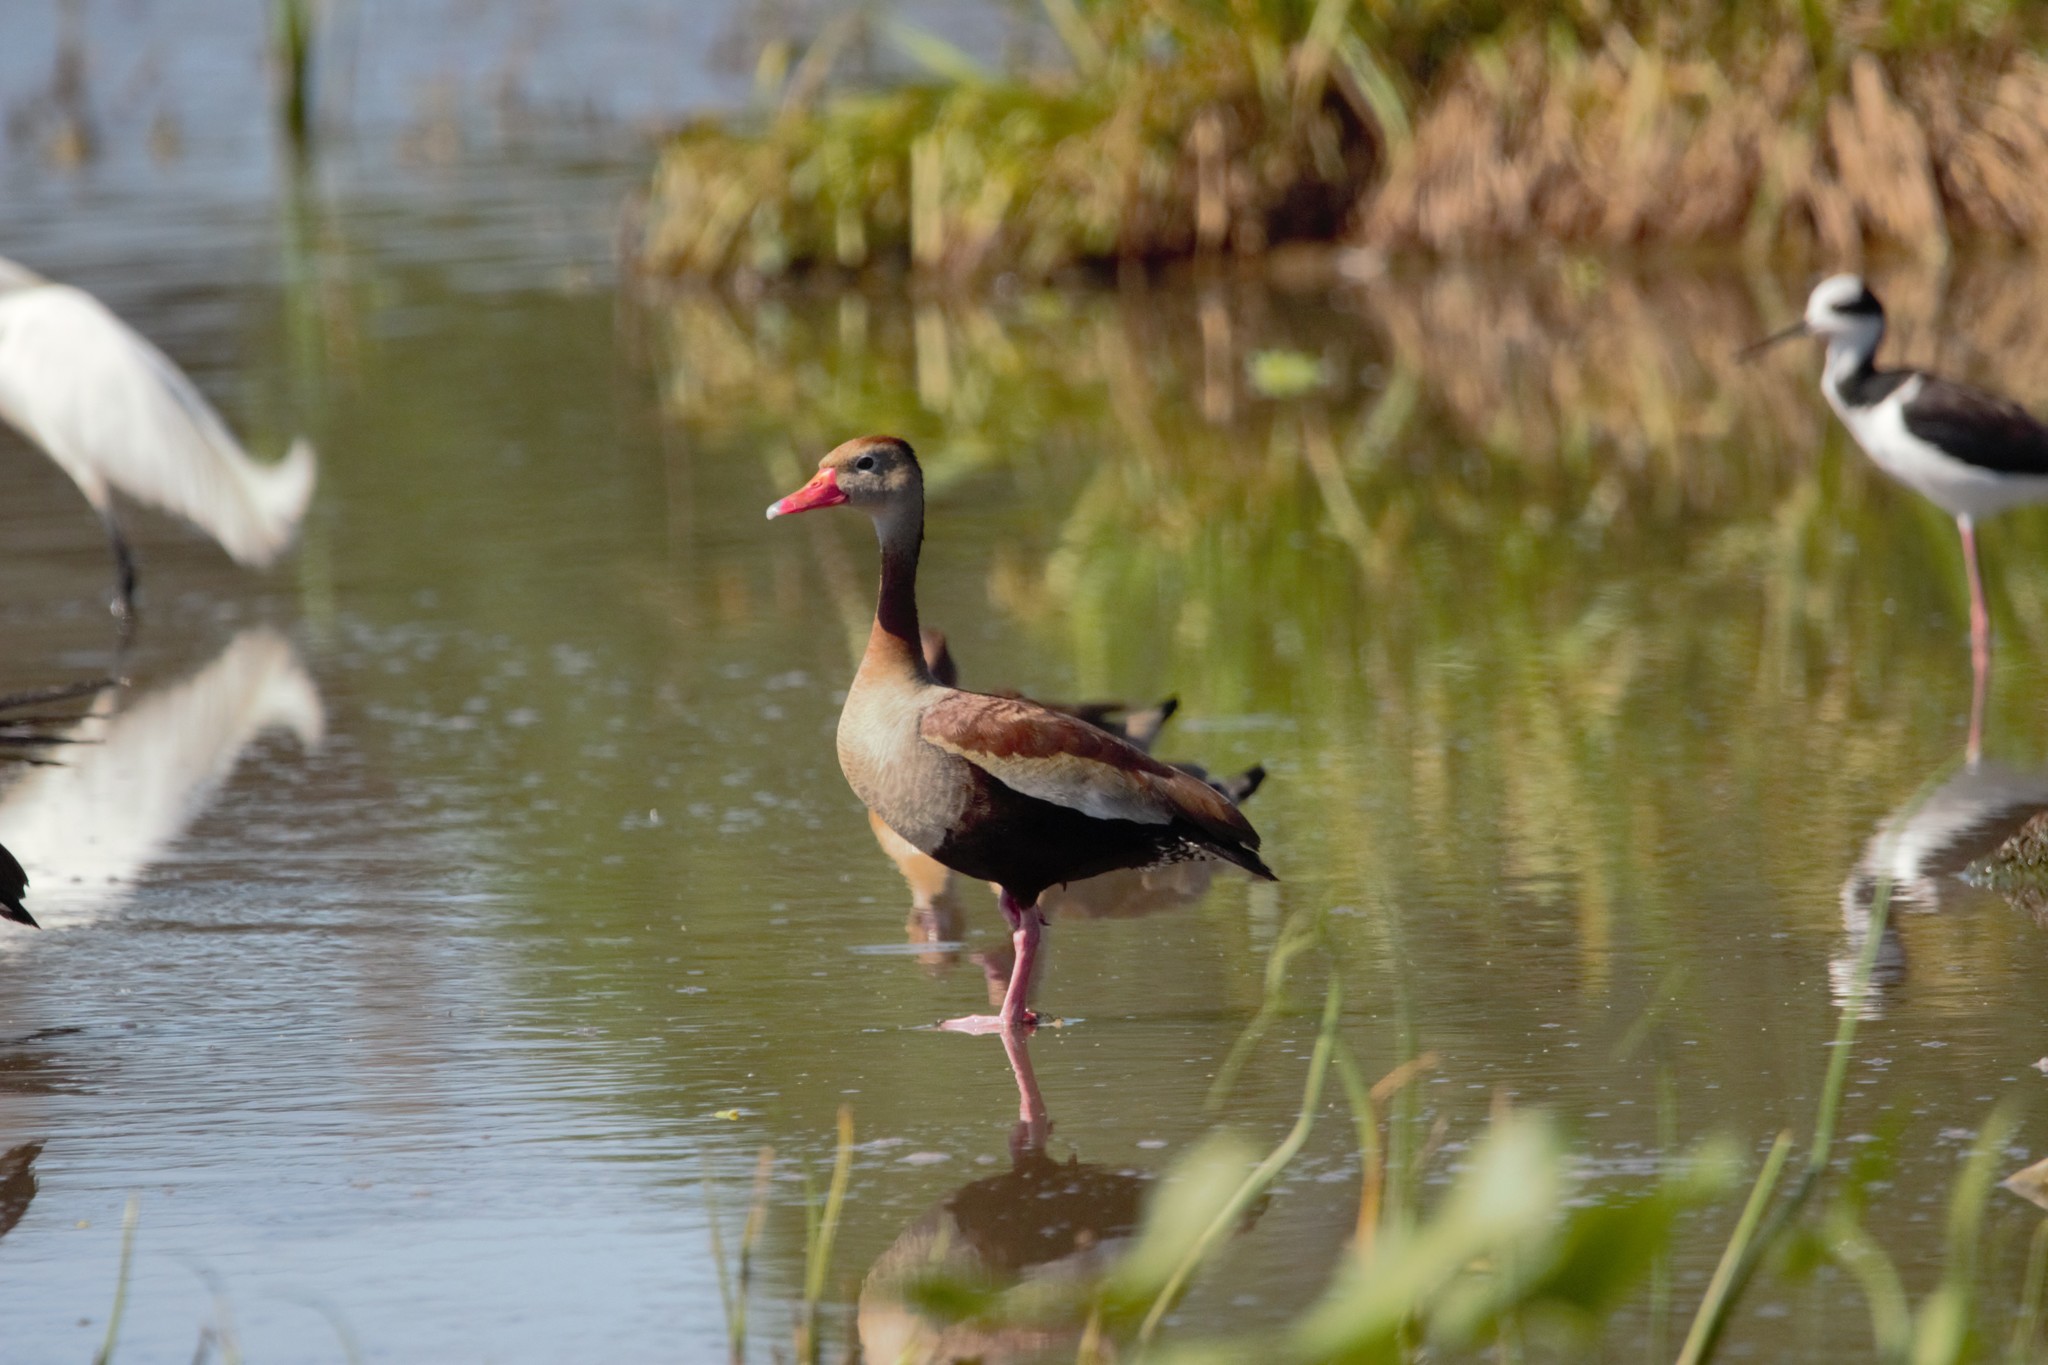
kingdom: Animalia
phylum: Chordata
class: Aves
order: Anseriformes
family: Anatidae
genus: Dendrocygna
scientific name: Dendrocygna autumnalis
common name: Black-bellied whistling duck
